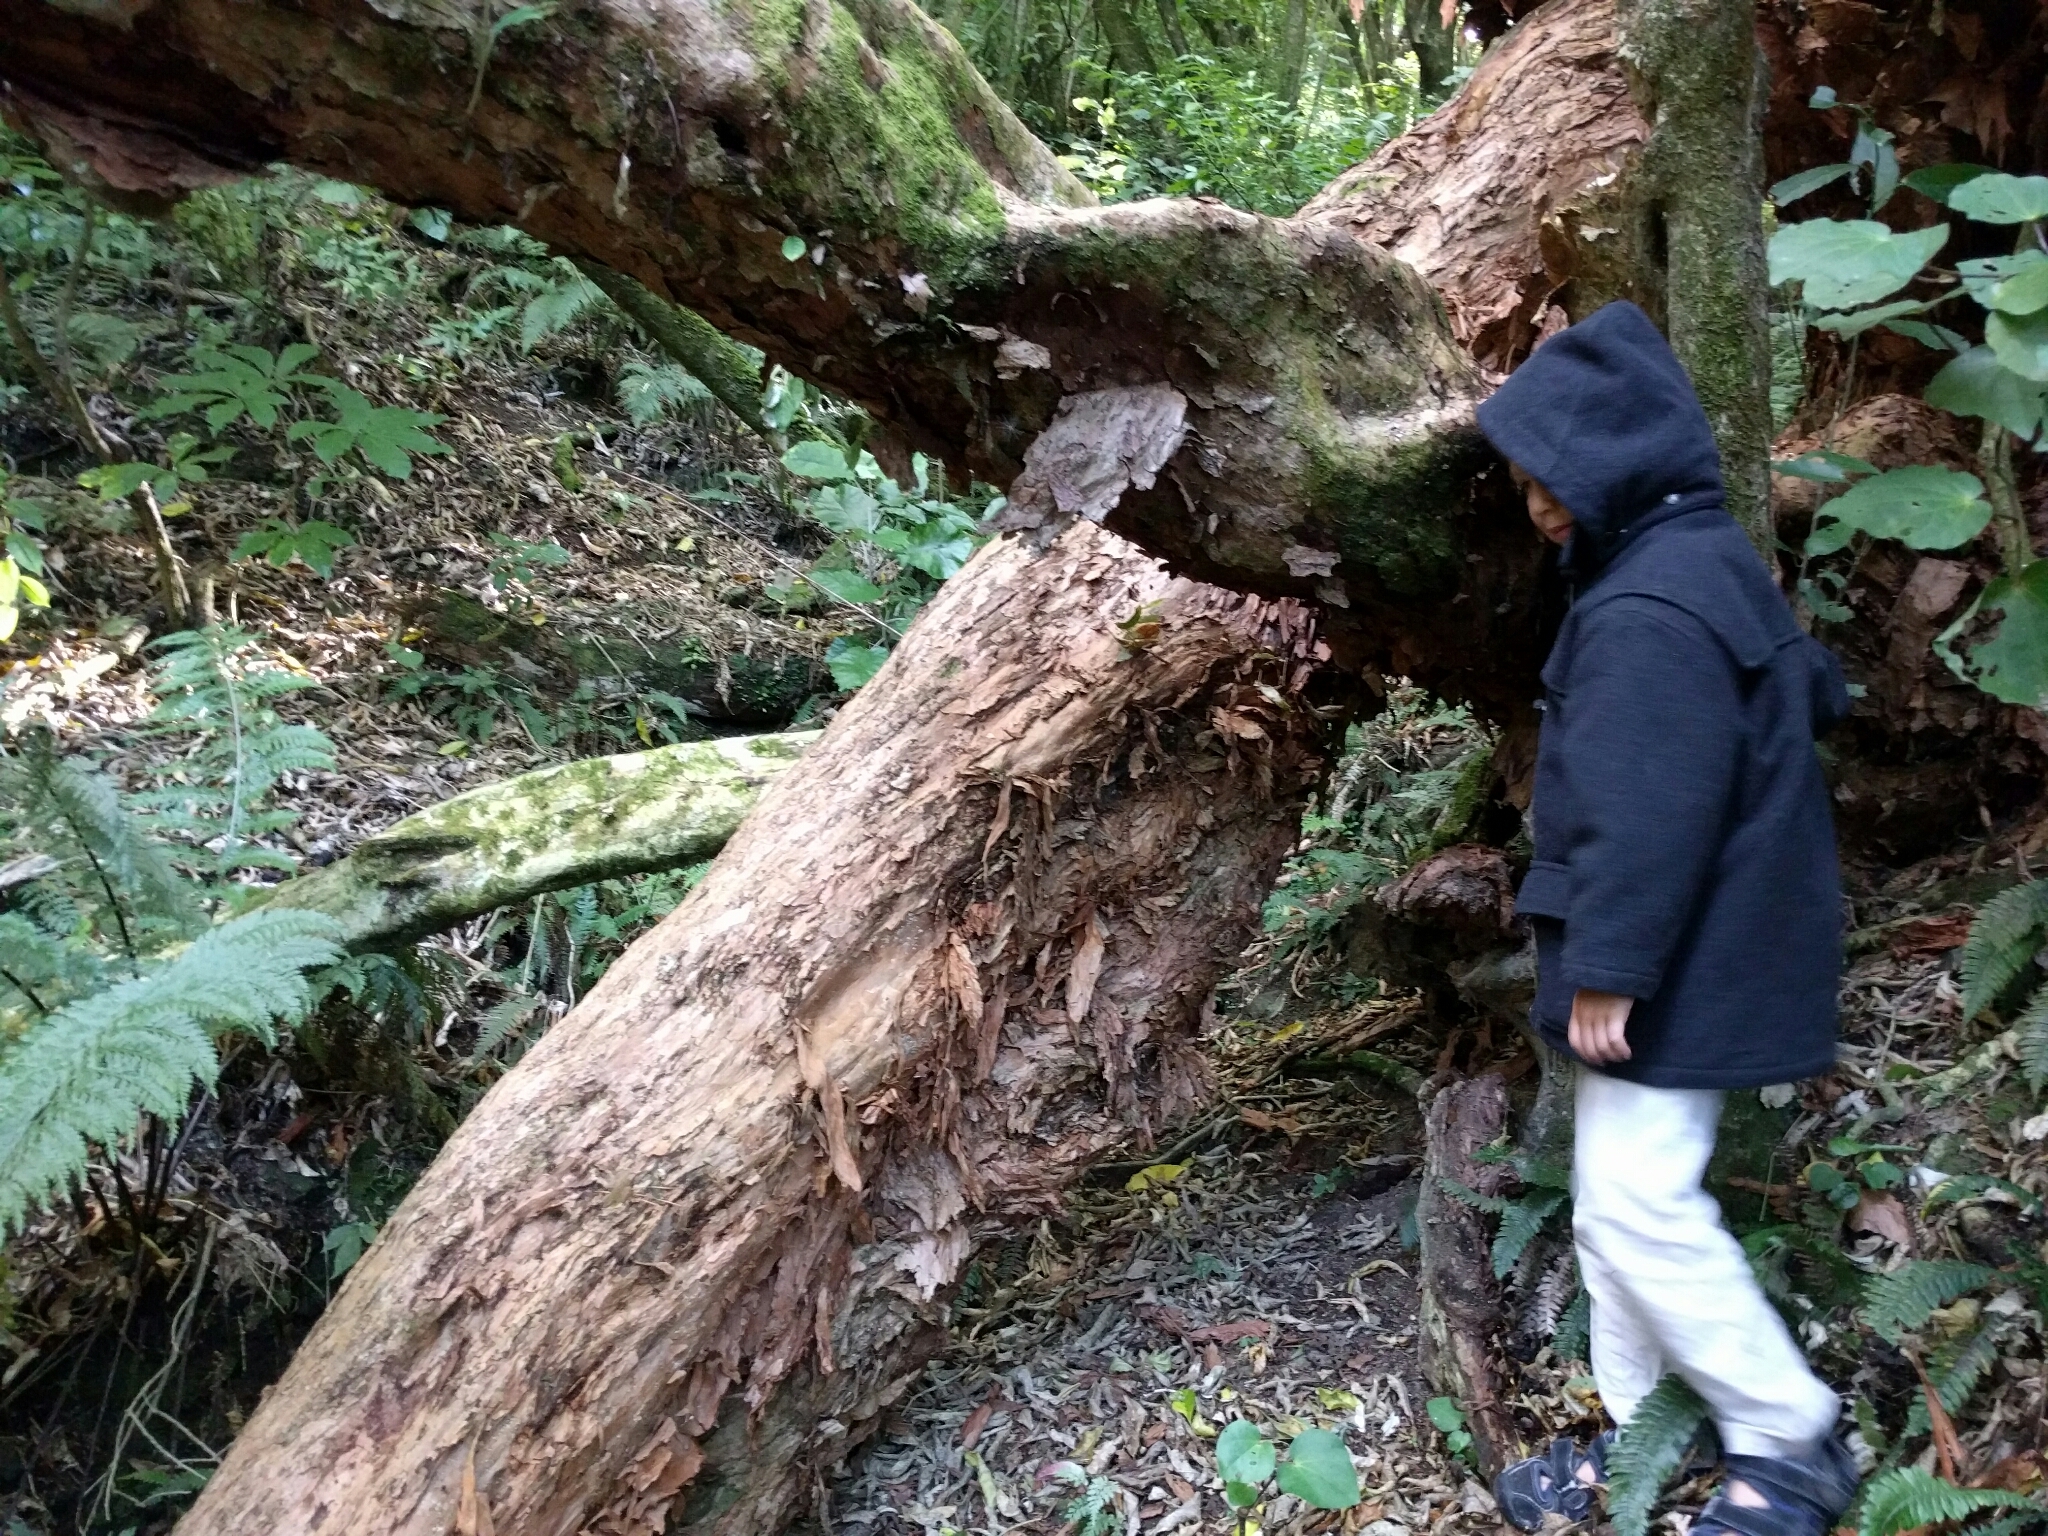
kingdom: Plantae
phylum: Tracheophyta
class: Magnoliopsida
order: Myrtales
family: Onagraceae
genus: Fuchsia
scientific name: Fuchsia excorticata
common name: Tree fuchsia
